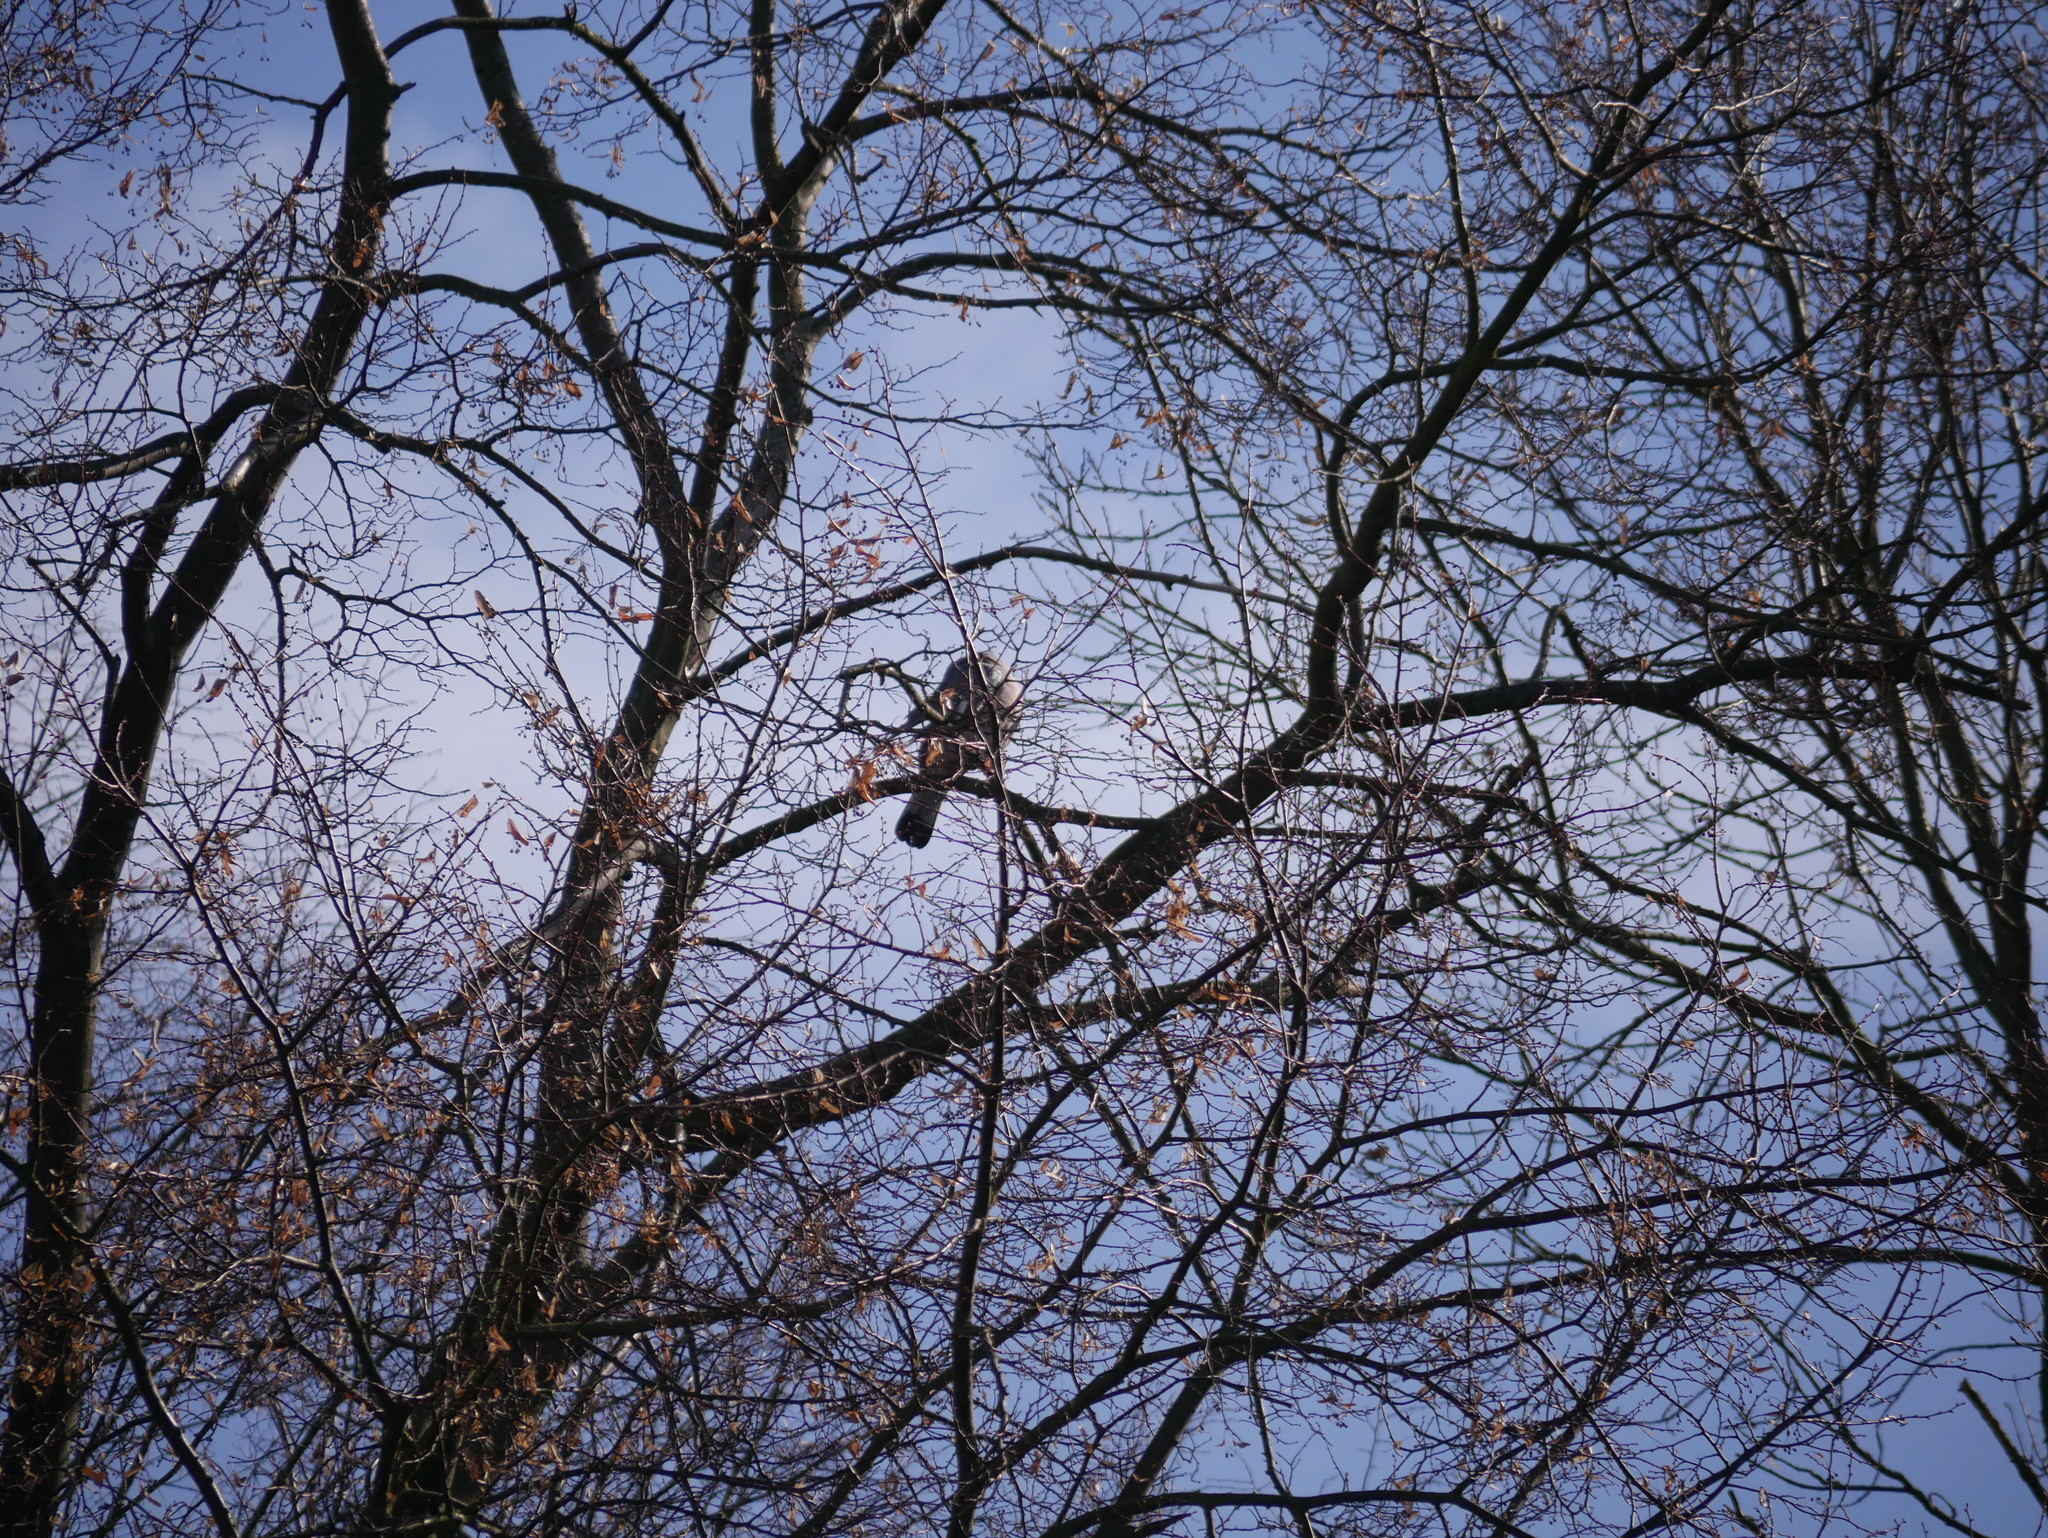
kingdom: Animalia
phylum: Chordata
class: Aves
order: Columbiformes
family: Columbidae
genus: Columba
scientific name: Columba palumbus
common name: Common wood pigeon
